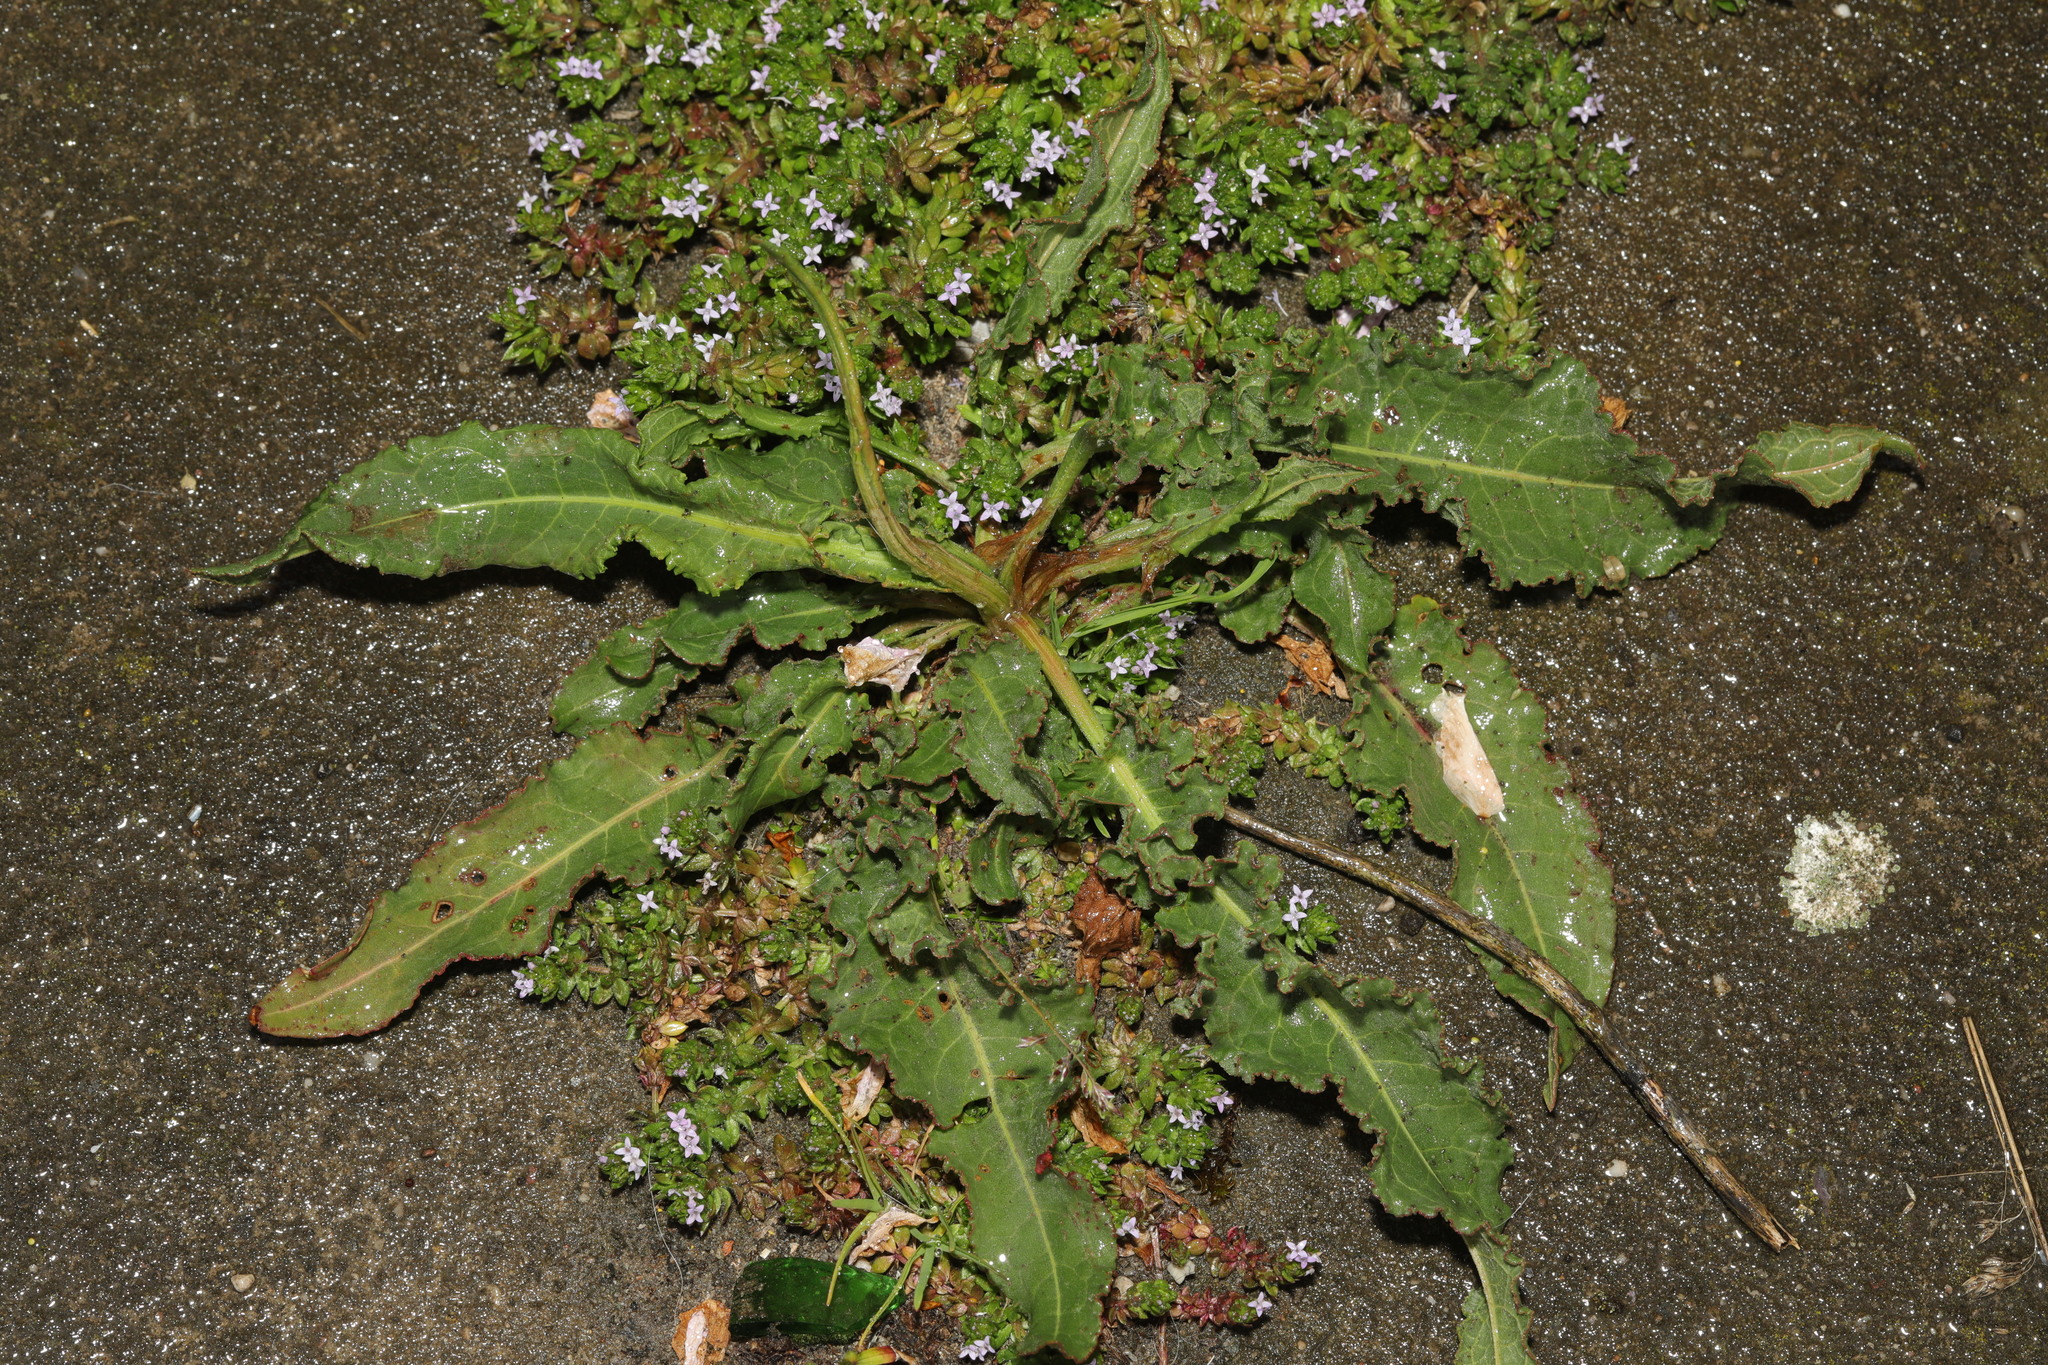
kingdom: Plantae
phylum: Tracheophyta
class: Magnoliopsida
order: Caryophyllales
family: Polygonaceae
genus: Rumex
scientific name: Rumex crispus
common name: Curled dock
